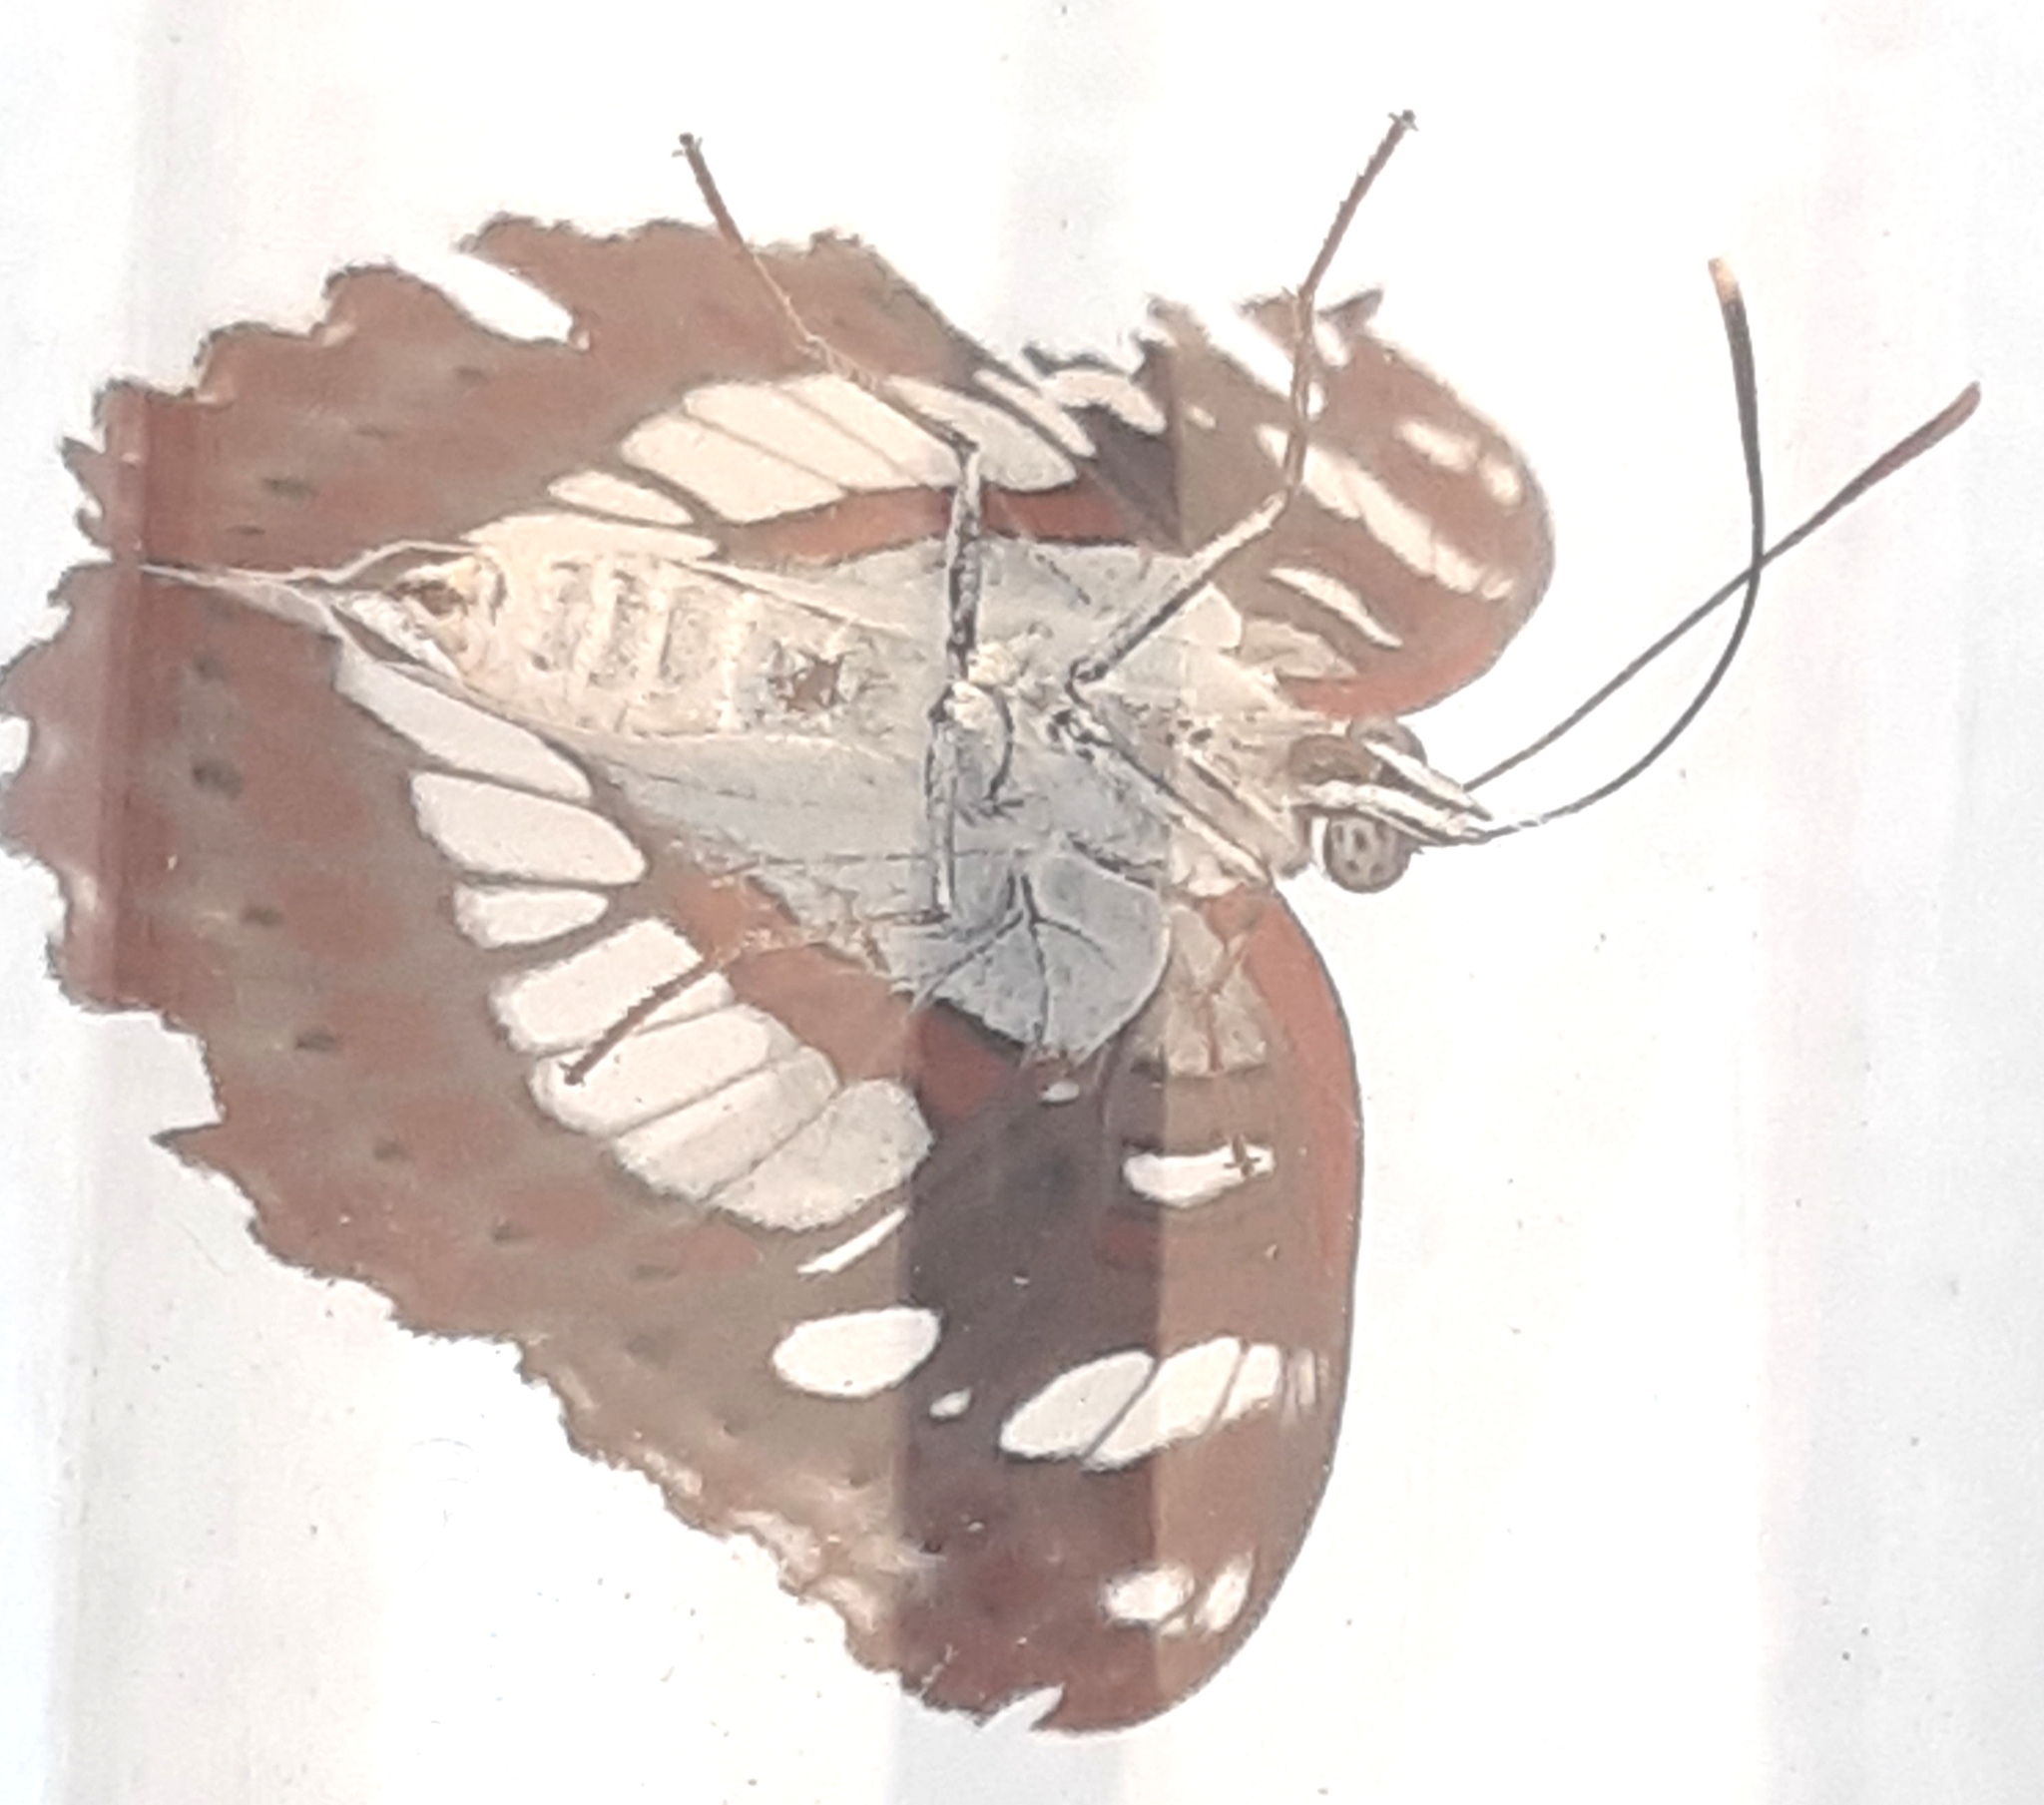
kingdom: Animalia
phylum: Arthropoda
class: Insecta
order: Lepidoptera
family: Nymphalidae
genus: Limenitis
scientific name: Limenitis reducta
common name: Southern white admiral
